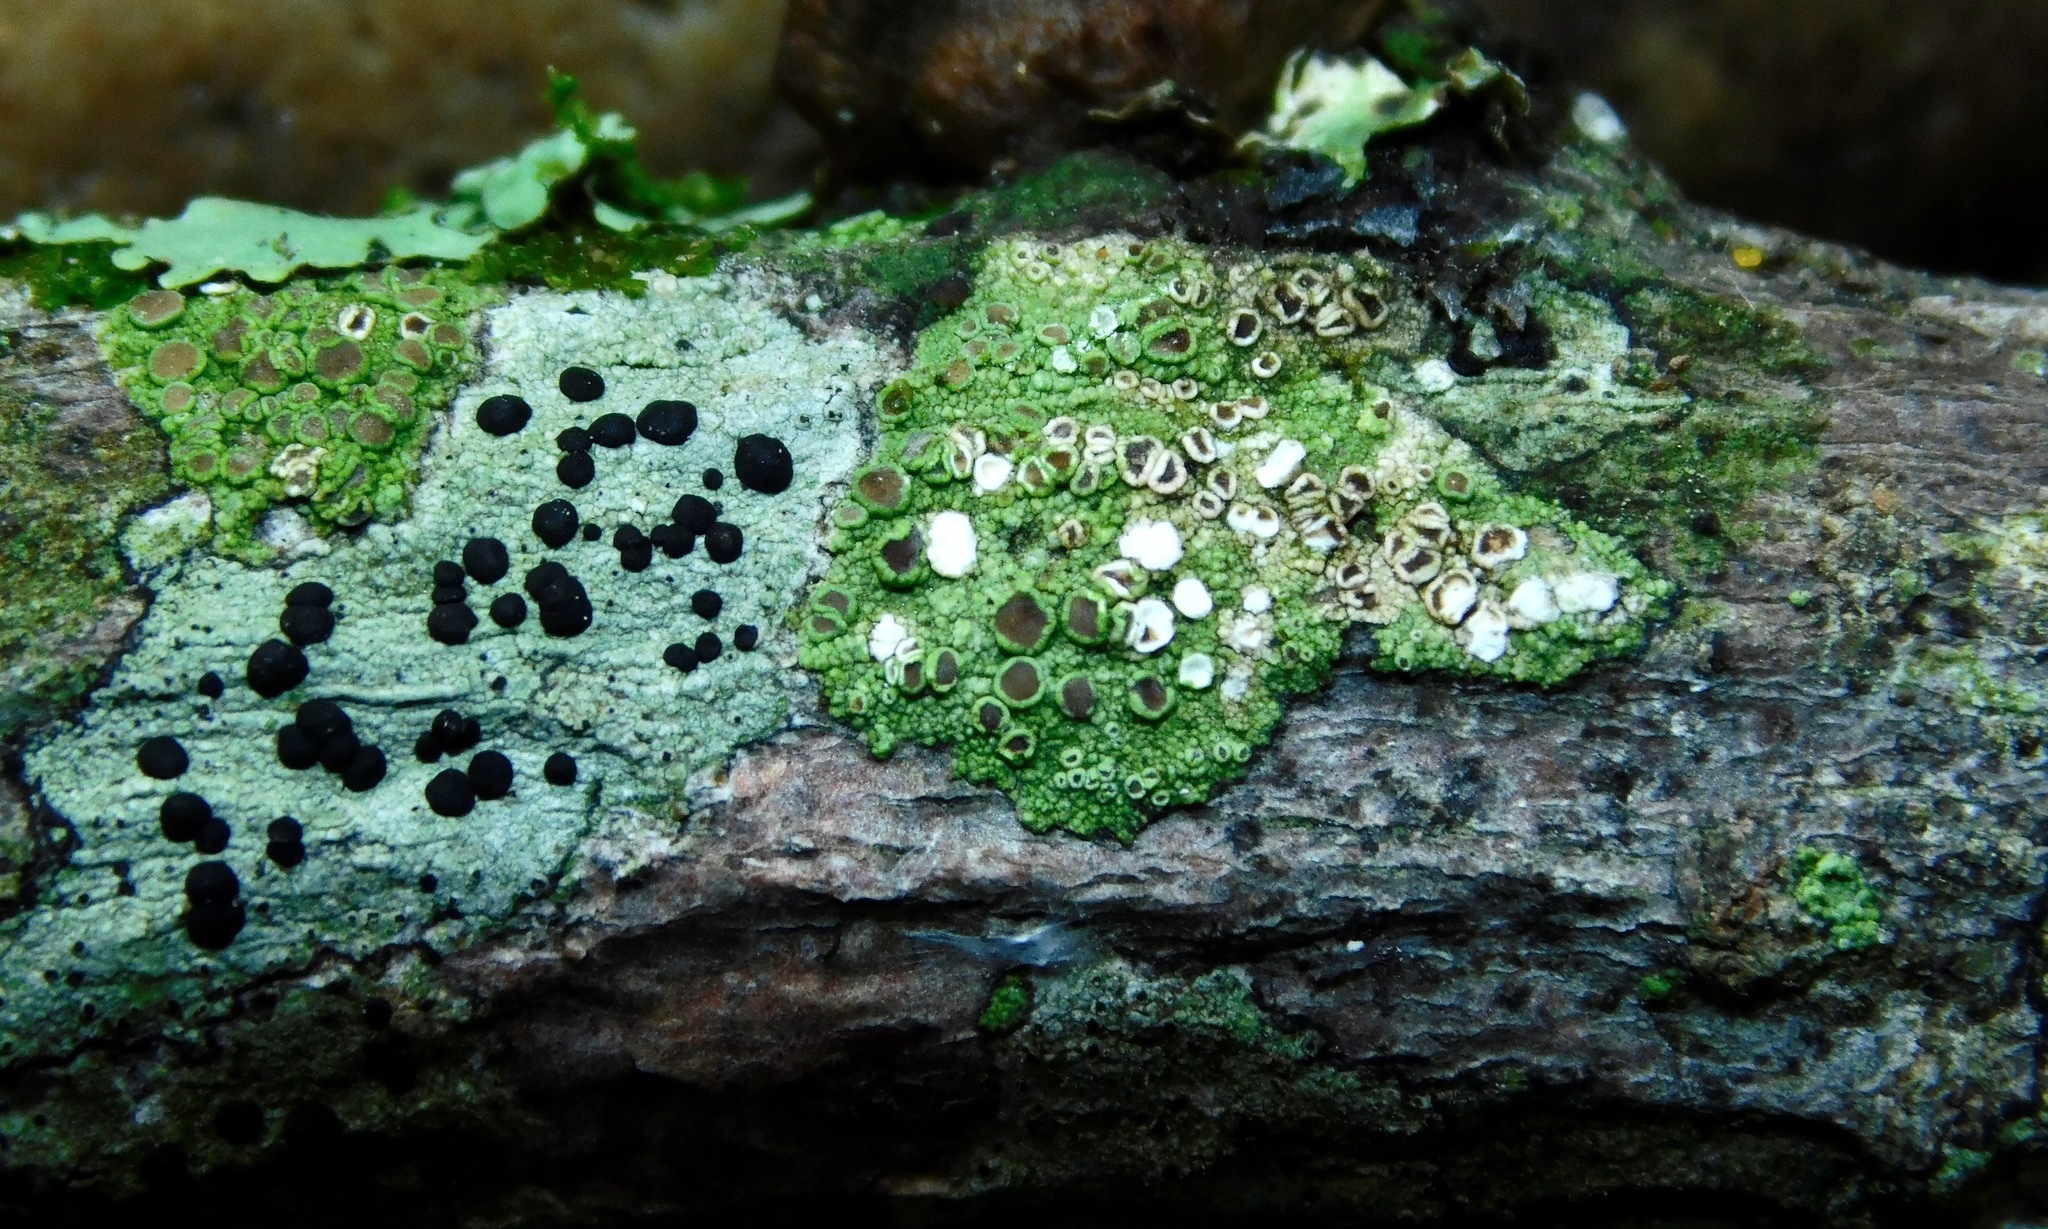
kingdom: Fungi
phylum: Ascomycota
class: Lecanoromycetes
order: Umbilicariales
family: Fuscideaceae
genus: Maronea
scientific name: Maronea polyphaea
